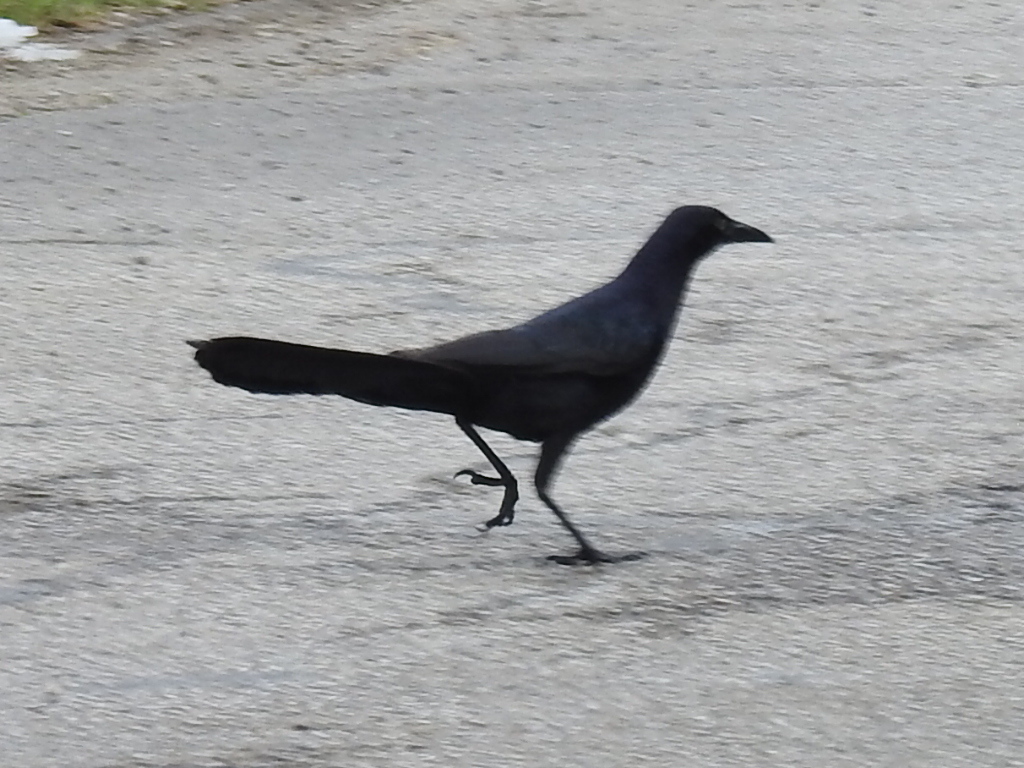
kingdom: Animalia
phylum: Chordata
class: Aves
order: Passeriformes
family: Icteridae
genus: Quiscalus
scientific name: Quiscalus mexicanus
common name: Great-tailed grackle
